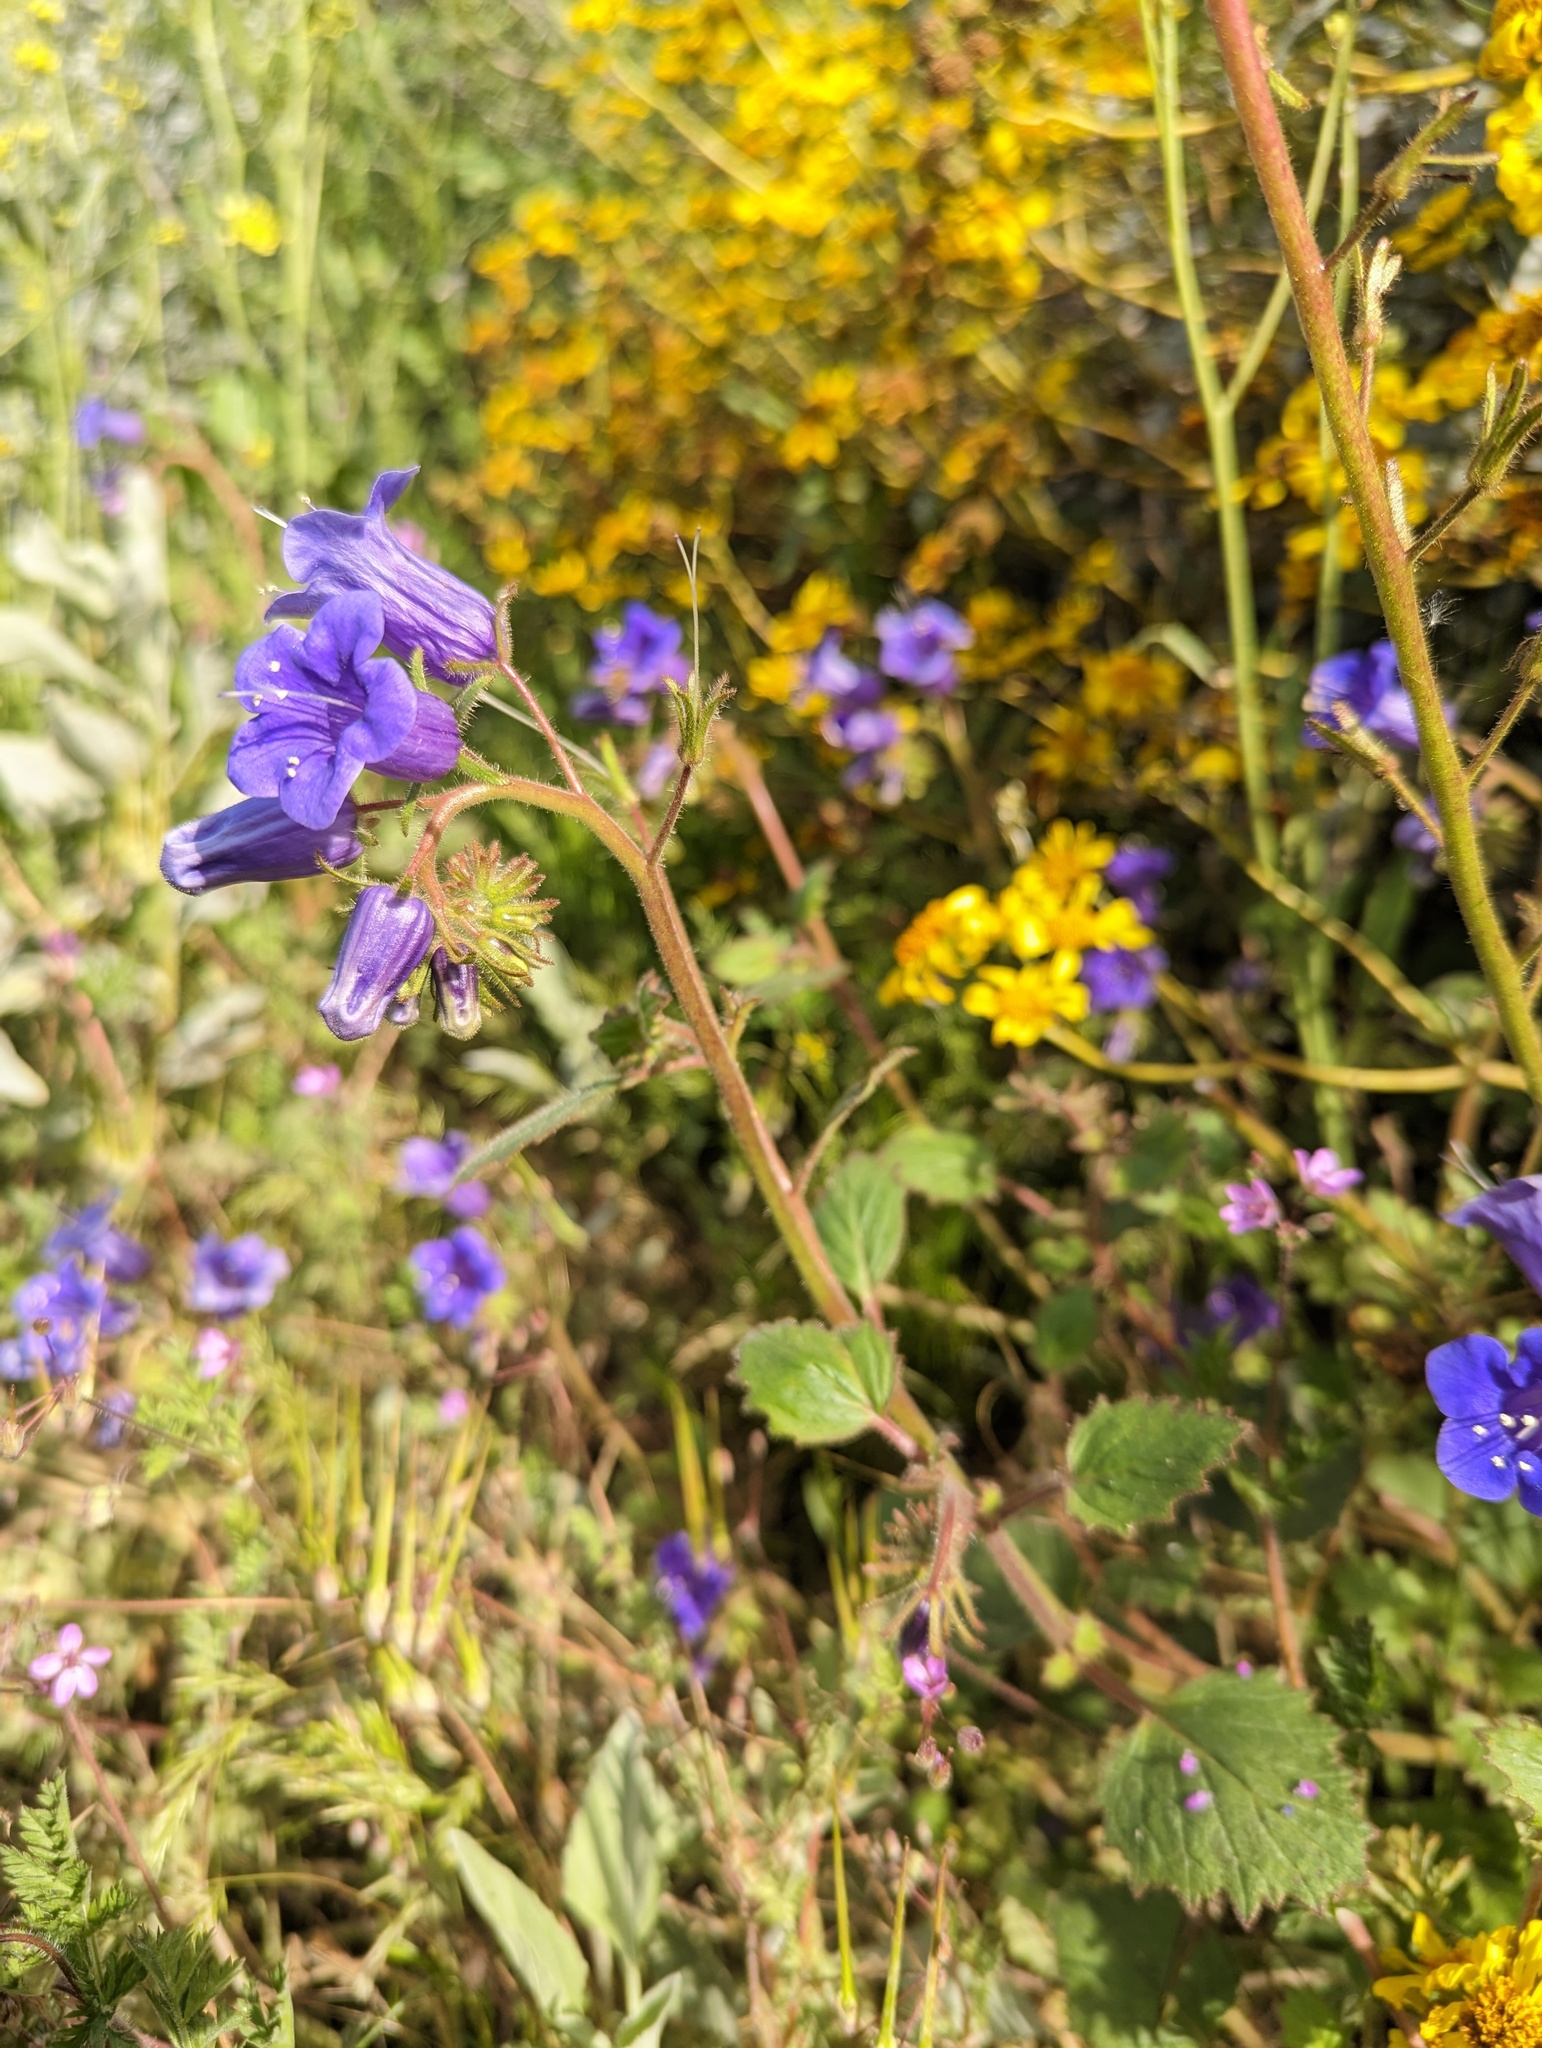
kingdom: Plantae
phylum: Tracheophyta
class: Magnoliopsida
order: Boraginales
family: Hydrophyllaceae
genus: Phacelia
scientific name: Phacelia minor
